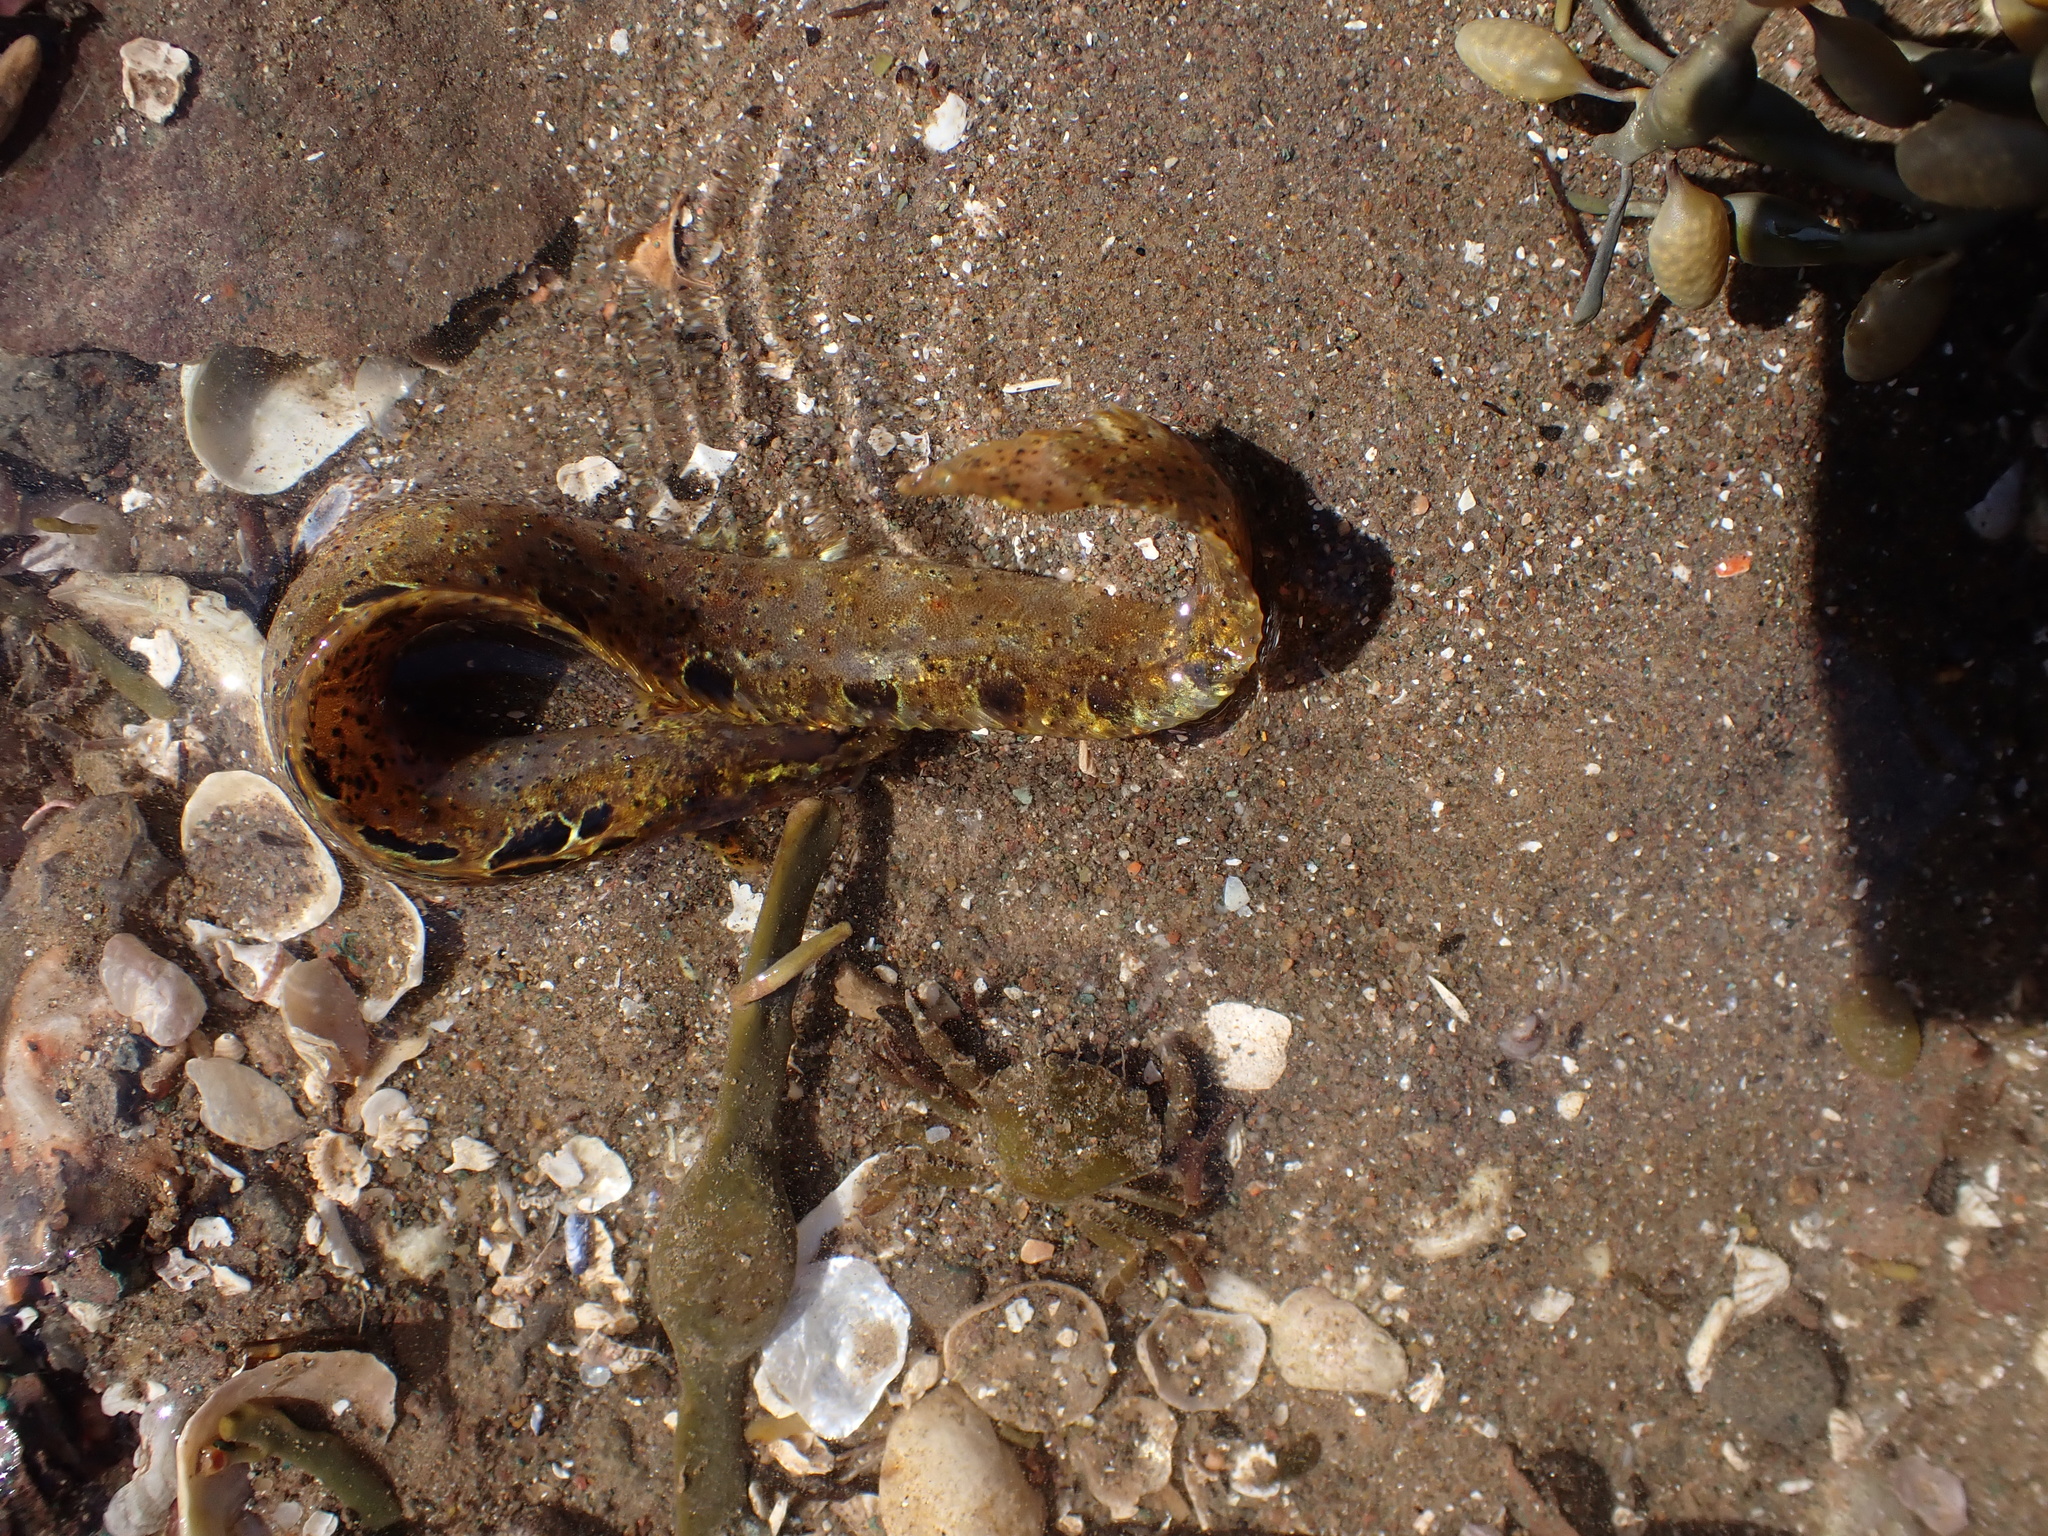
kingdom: Animalia
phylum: Chordata
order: Perciformes
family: Pholidae
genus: Pholis
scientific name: Pholis gunnellus
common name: Butterfish
